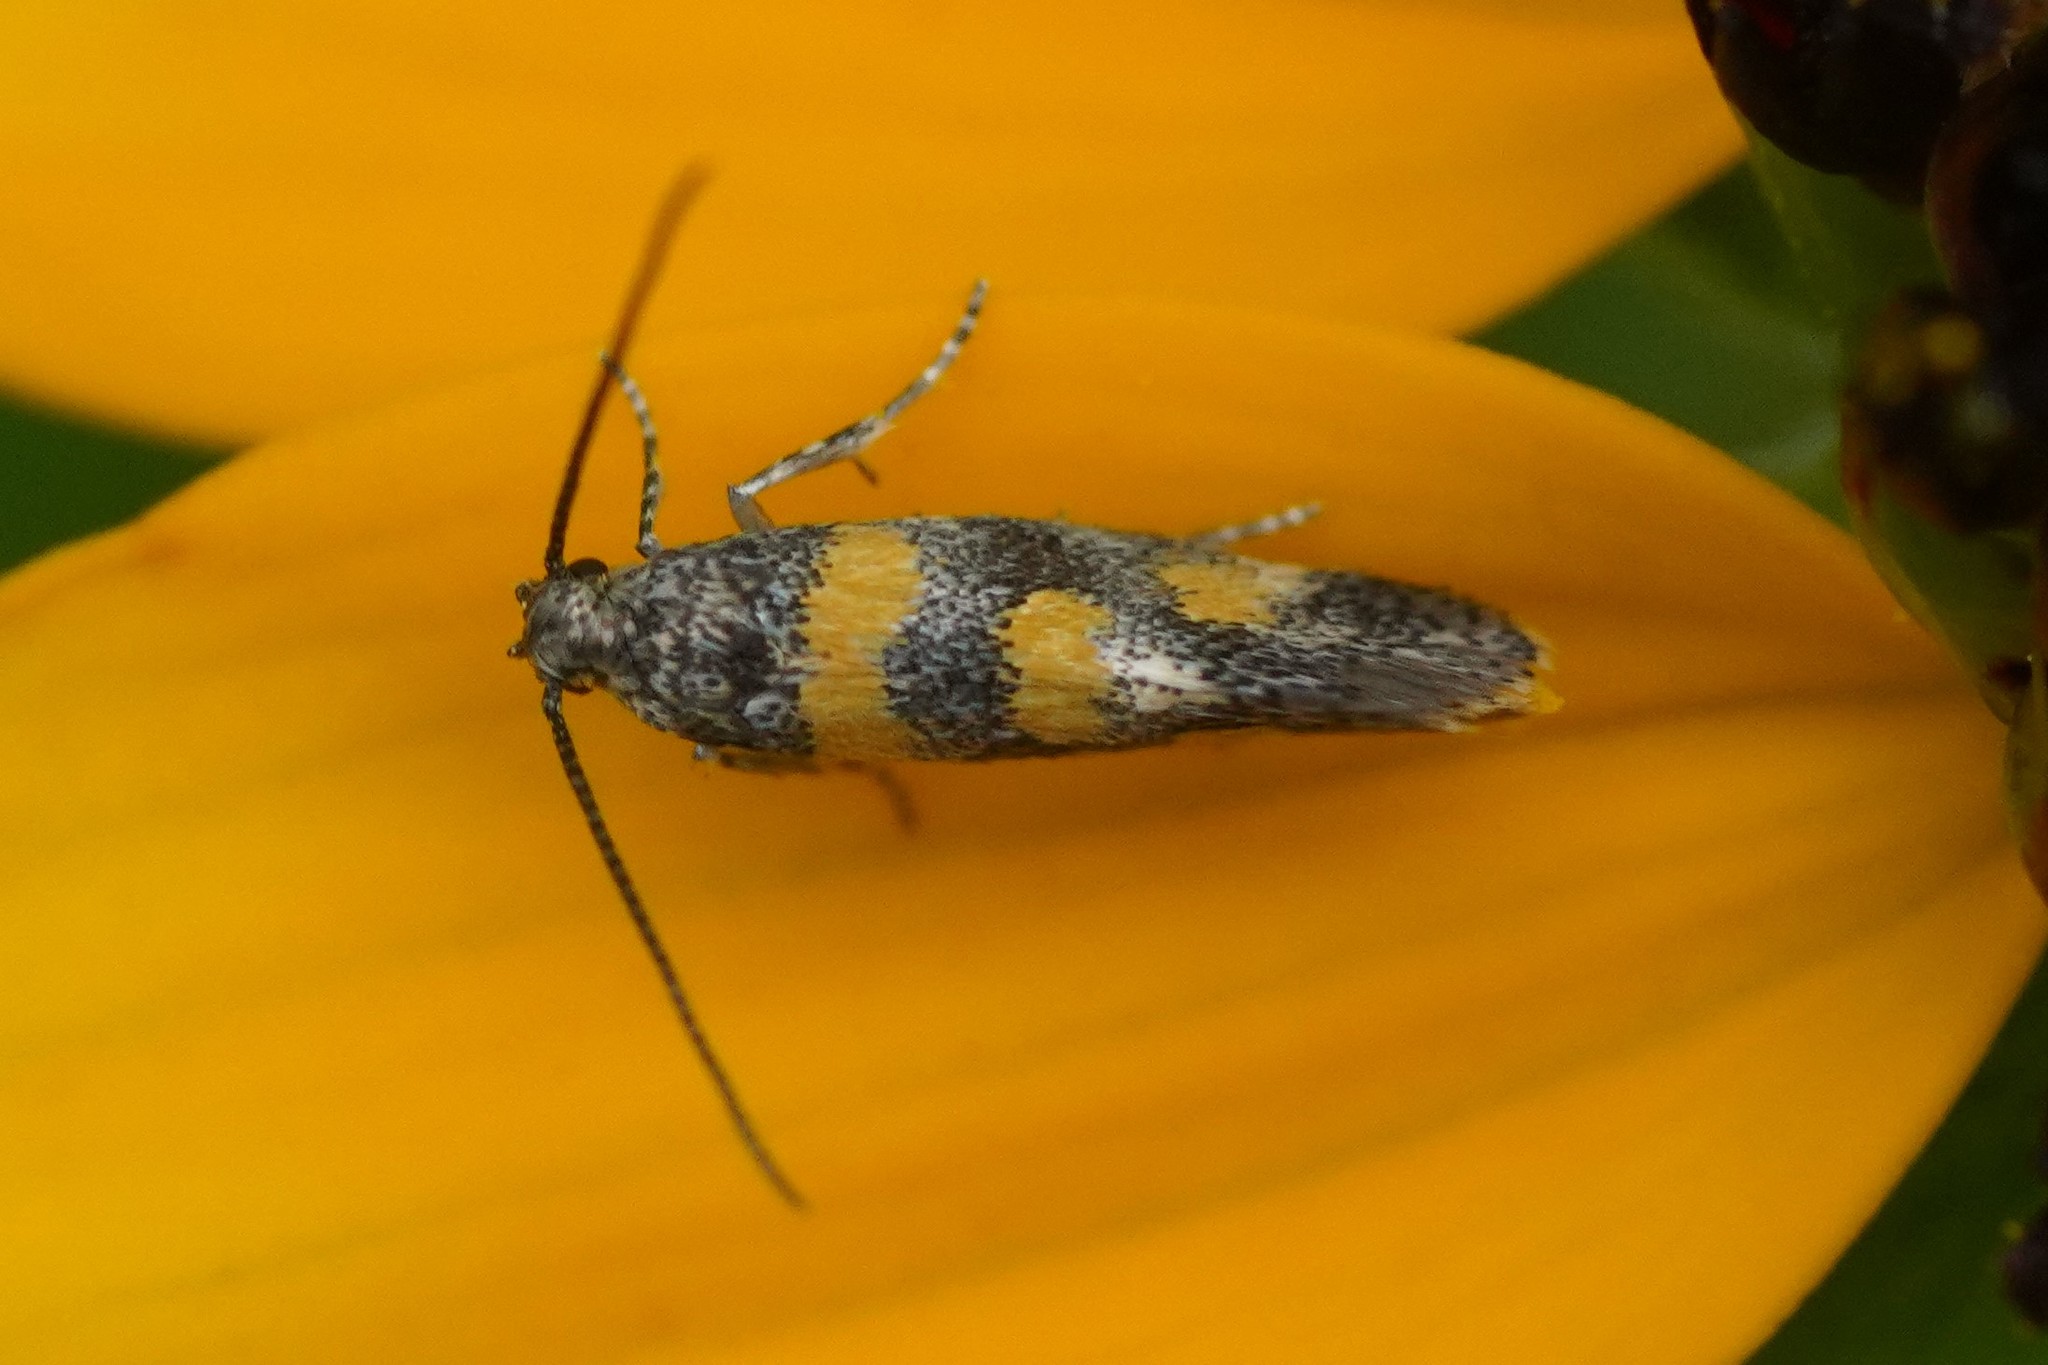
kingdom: Animalia
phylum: Arthropoda
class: Insecta
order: Lepidoptera
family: Gelechiidae
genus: Chrysoesthia
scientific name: Chrysoesthia sexguttella
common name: Moth
